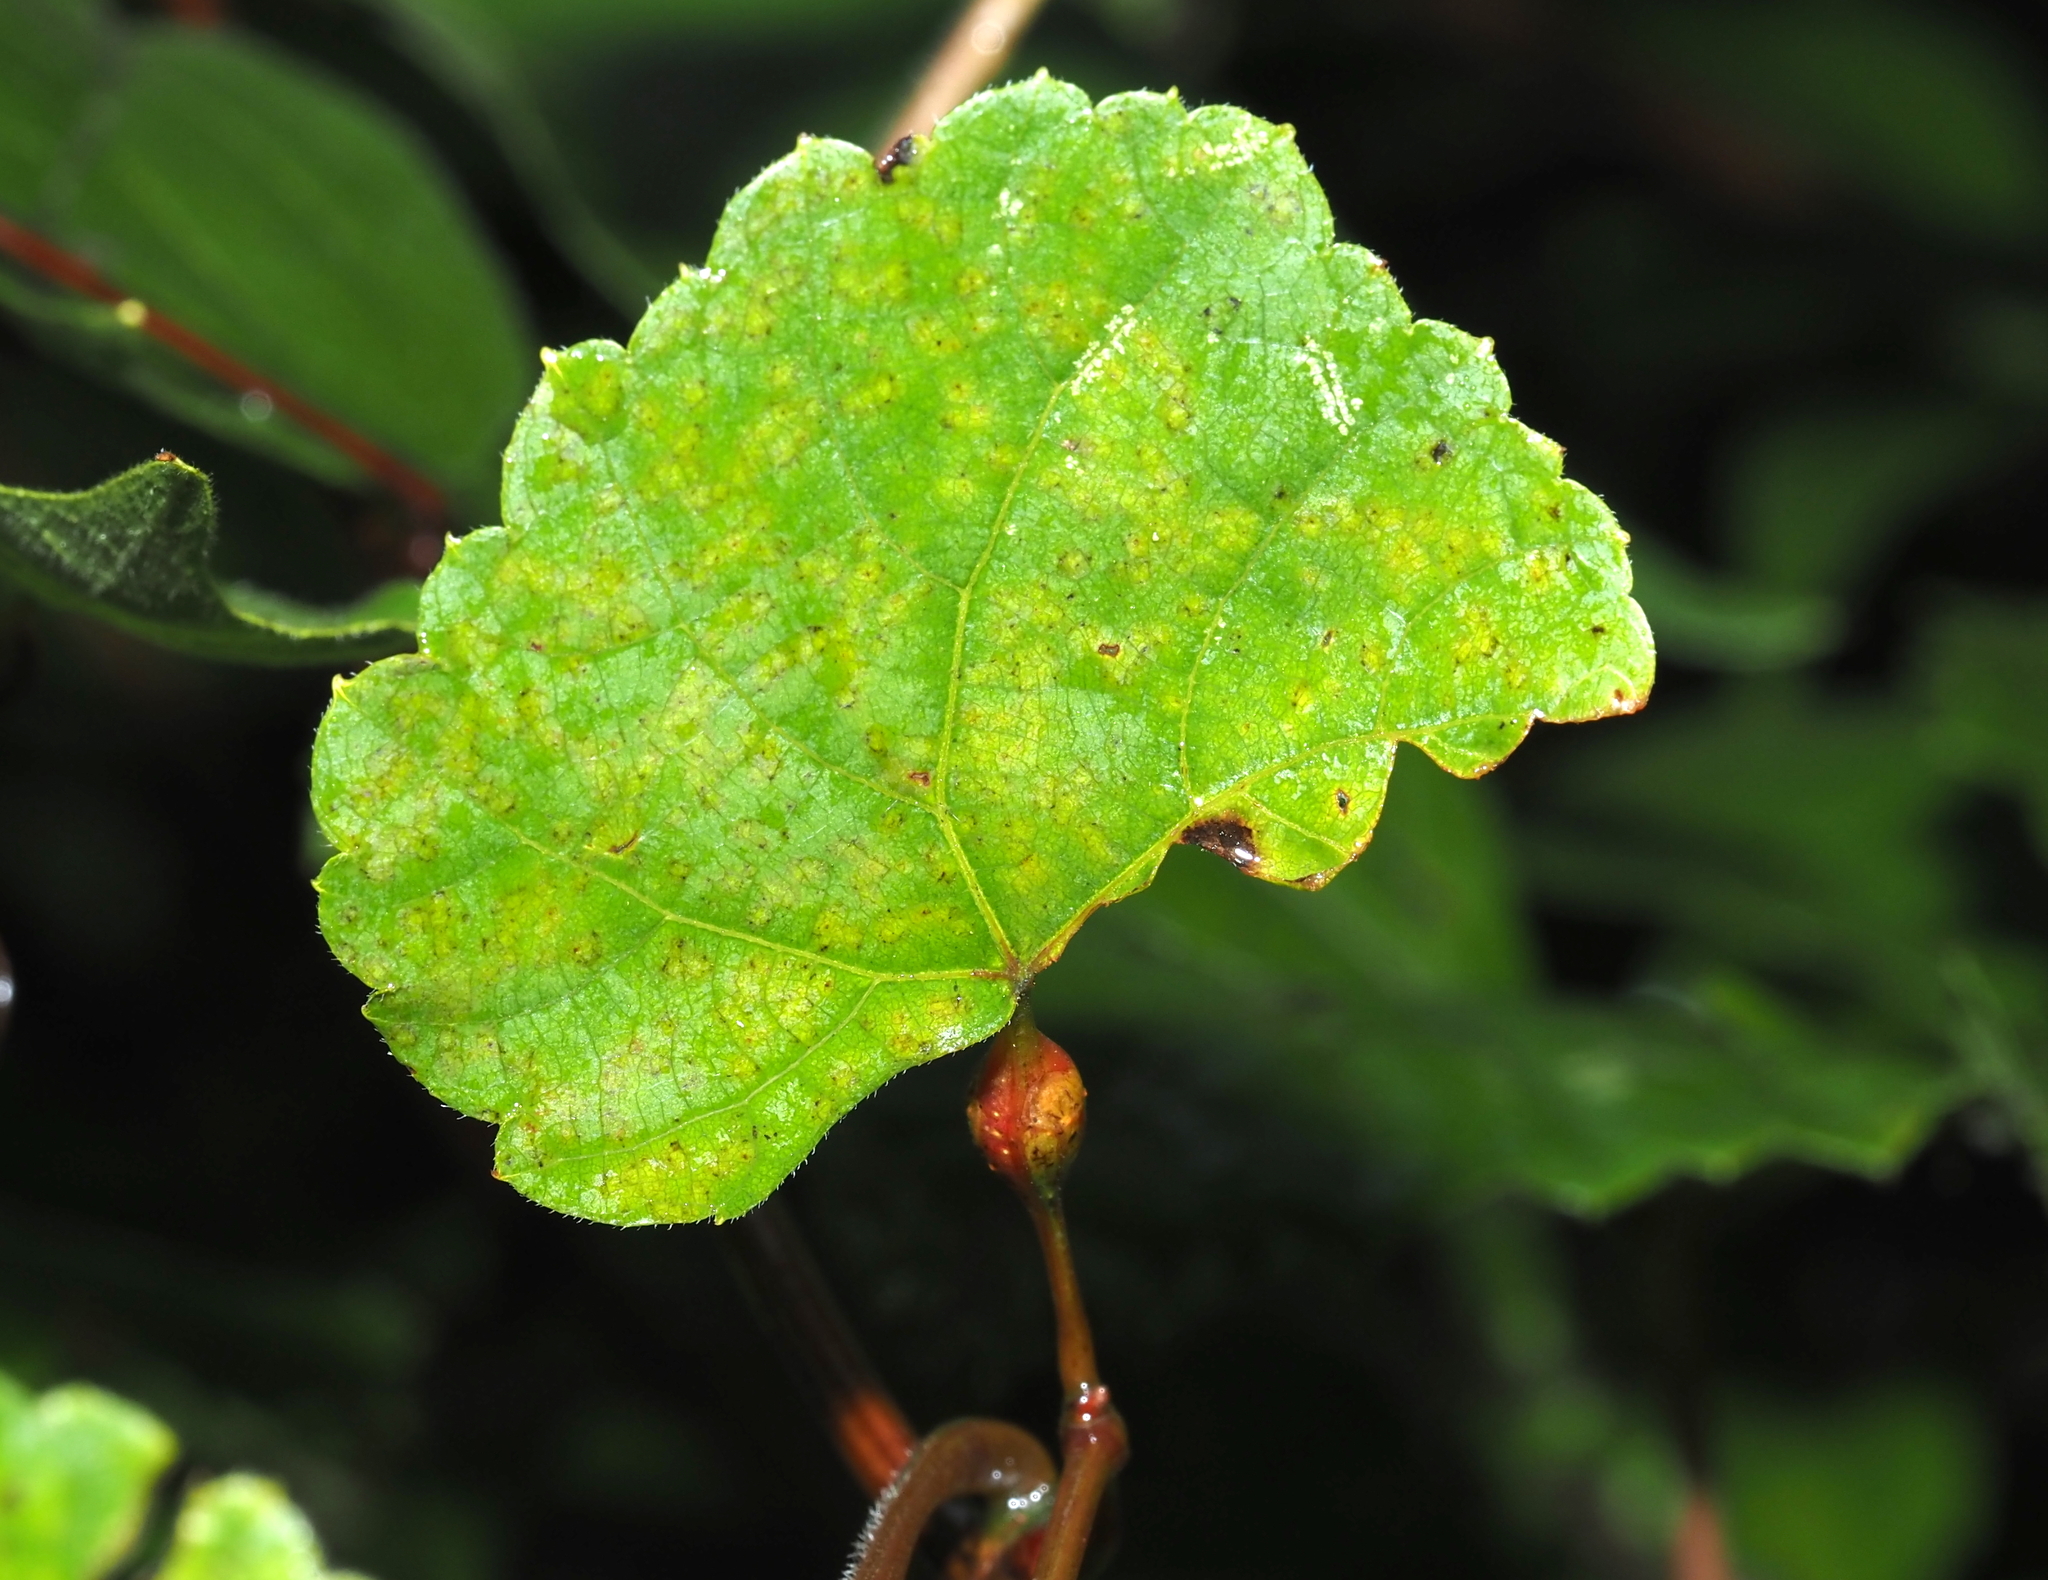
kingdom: Animalia
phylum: Arthropoda
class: Insecta
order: Diptera
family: Cecidomyiidae
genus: Neolasioptera
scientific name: Neolasioptera vitinea
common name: Grape leaf petiole gall
